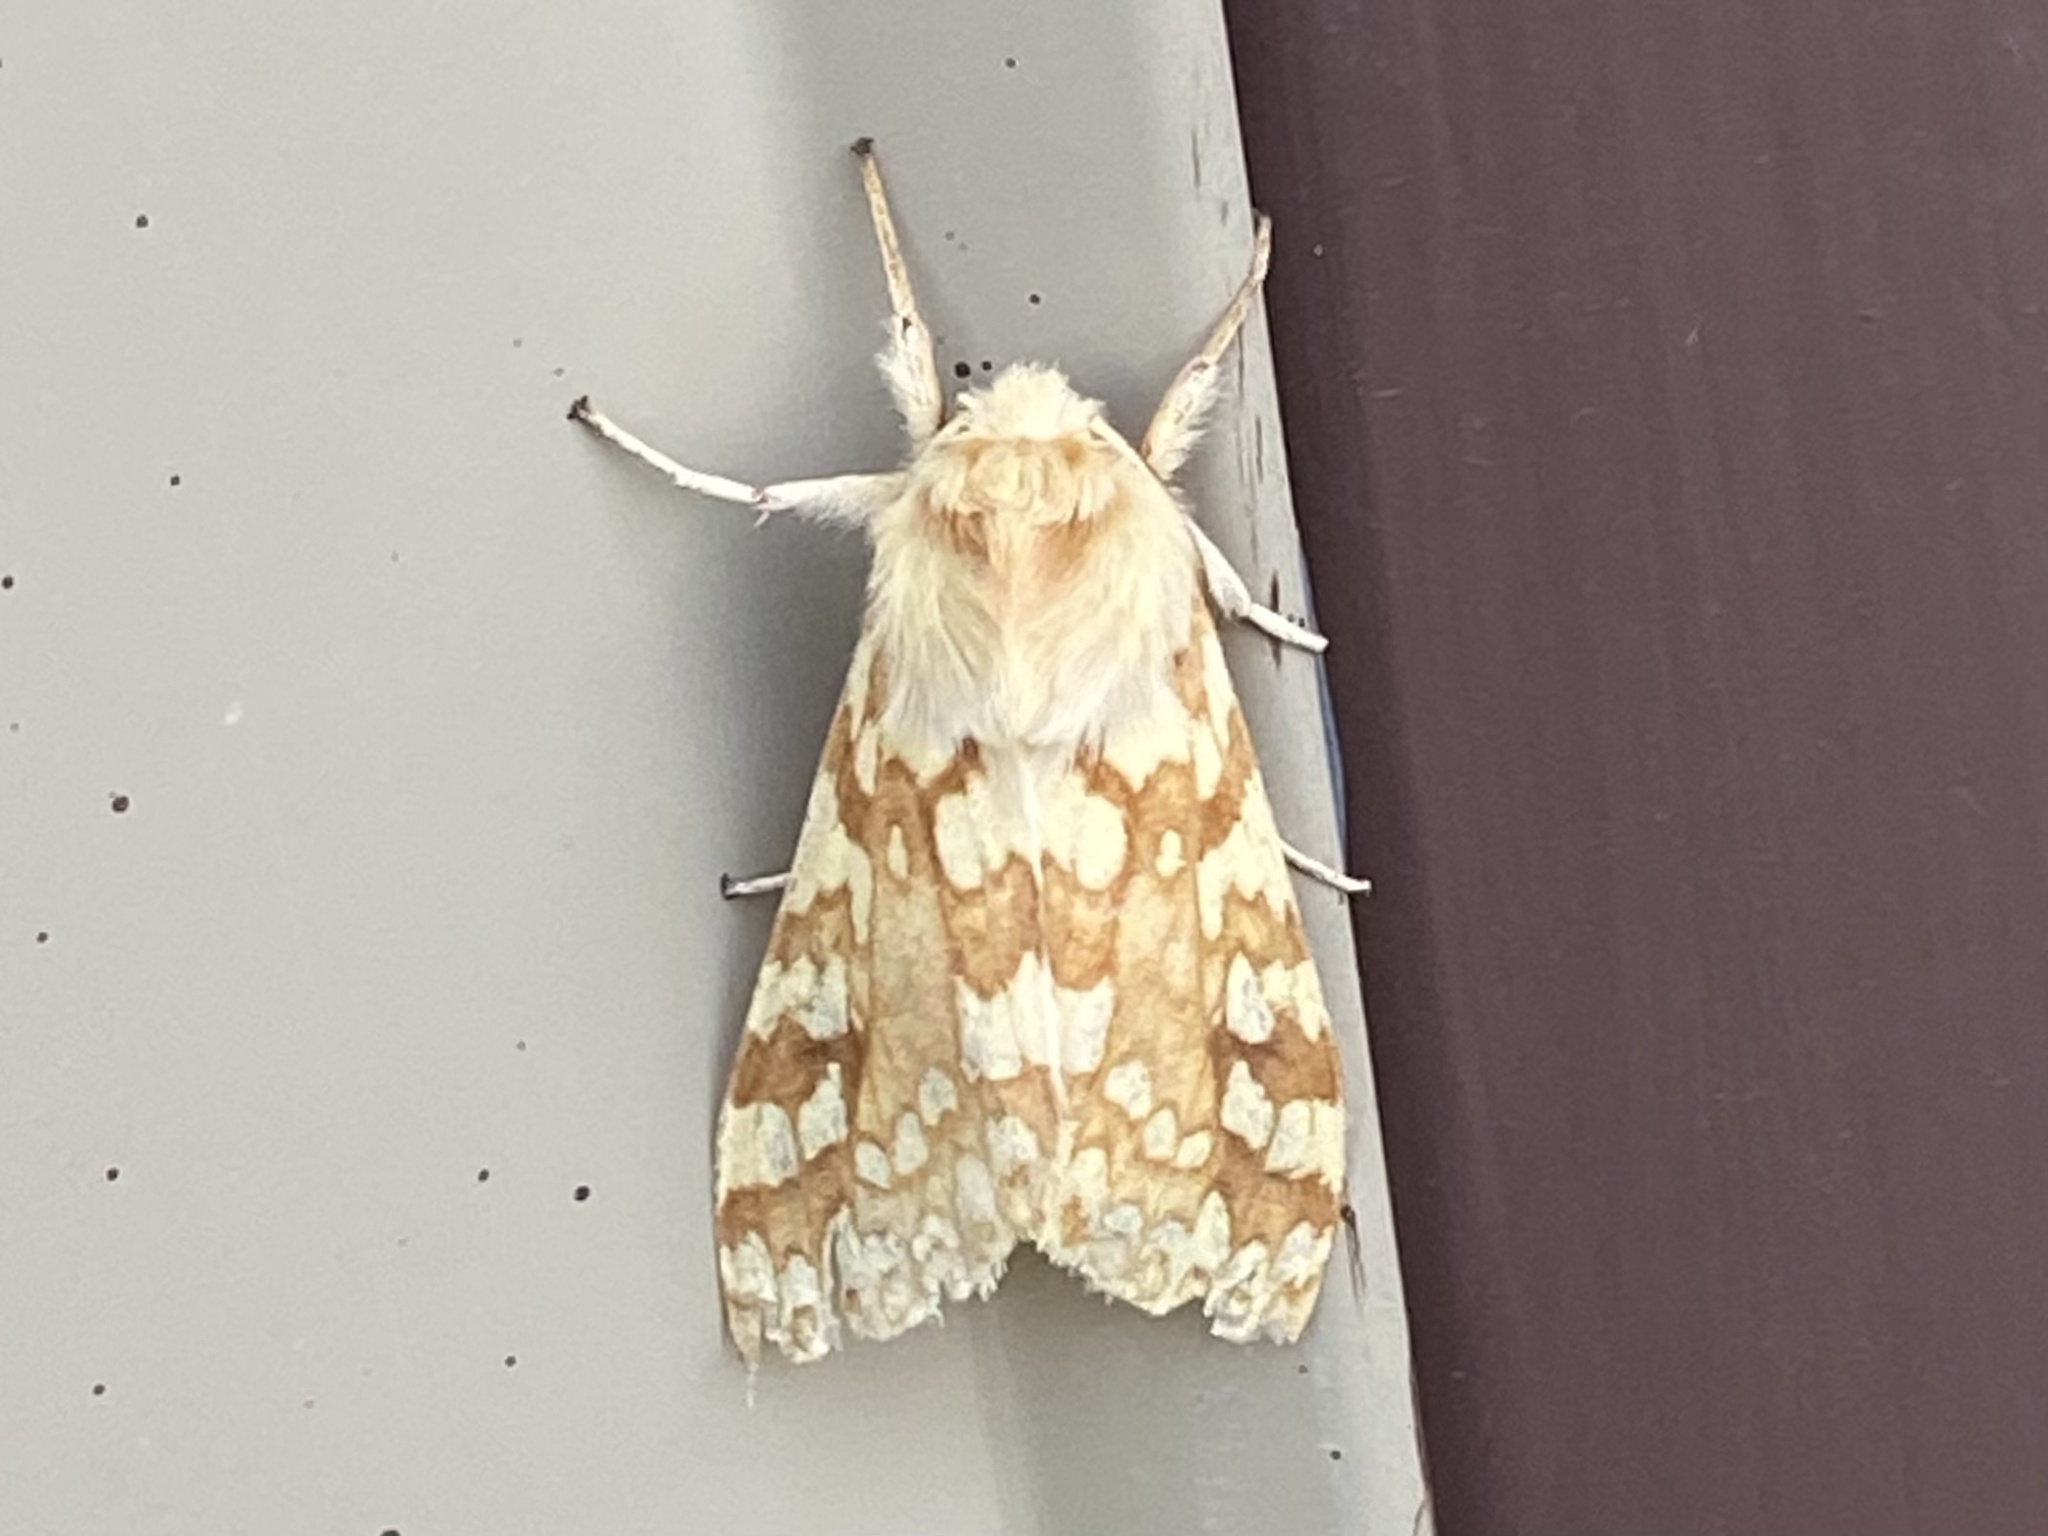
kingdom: Animalia
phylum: Arthropoda
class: Insecta
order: Lepidoptera
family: Erebidae
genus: Lophocampa
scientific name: Lophocampa maculata
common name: Spotted tussock moth
